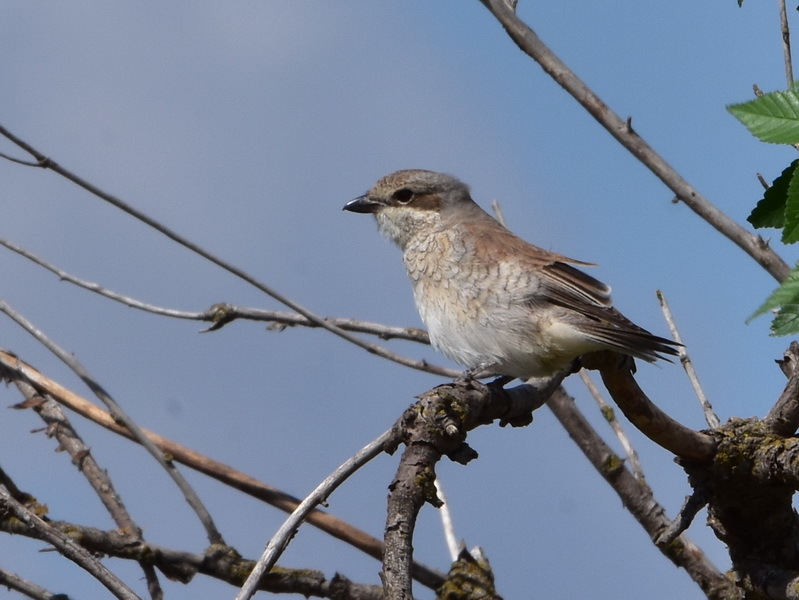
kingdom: Animalia
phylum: Chordata
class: Aves
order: Passeriformes
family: Laniidae
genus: Lanius
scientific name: Lanius collurio
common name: Red-backed shrike
